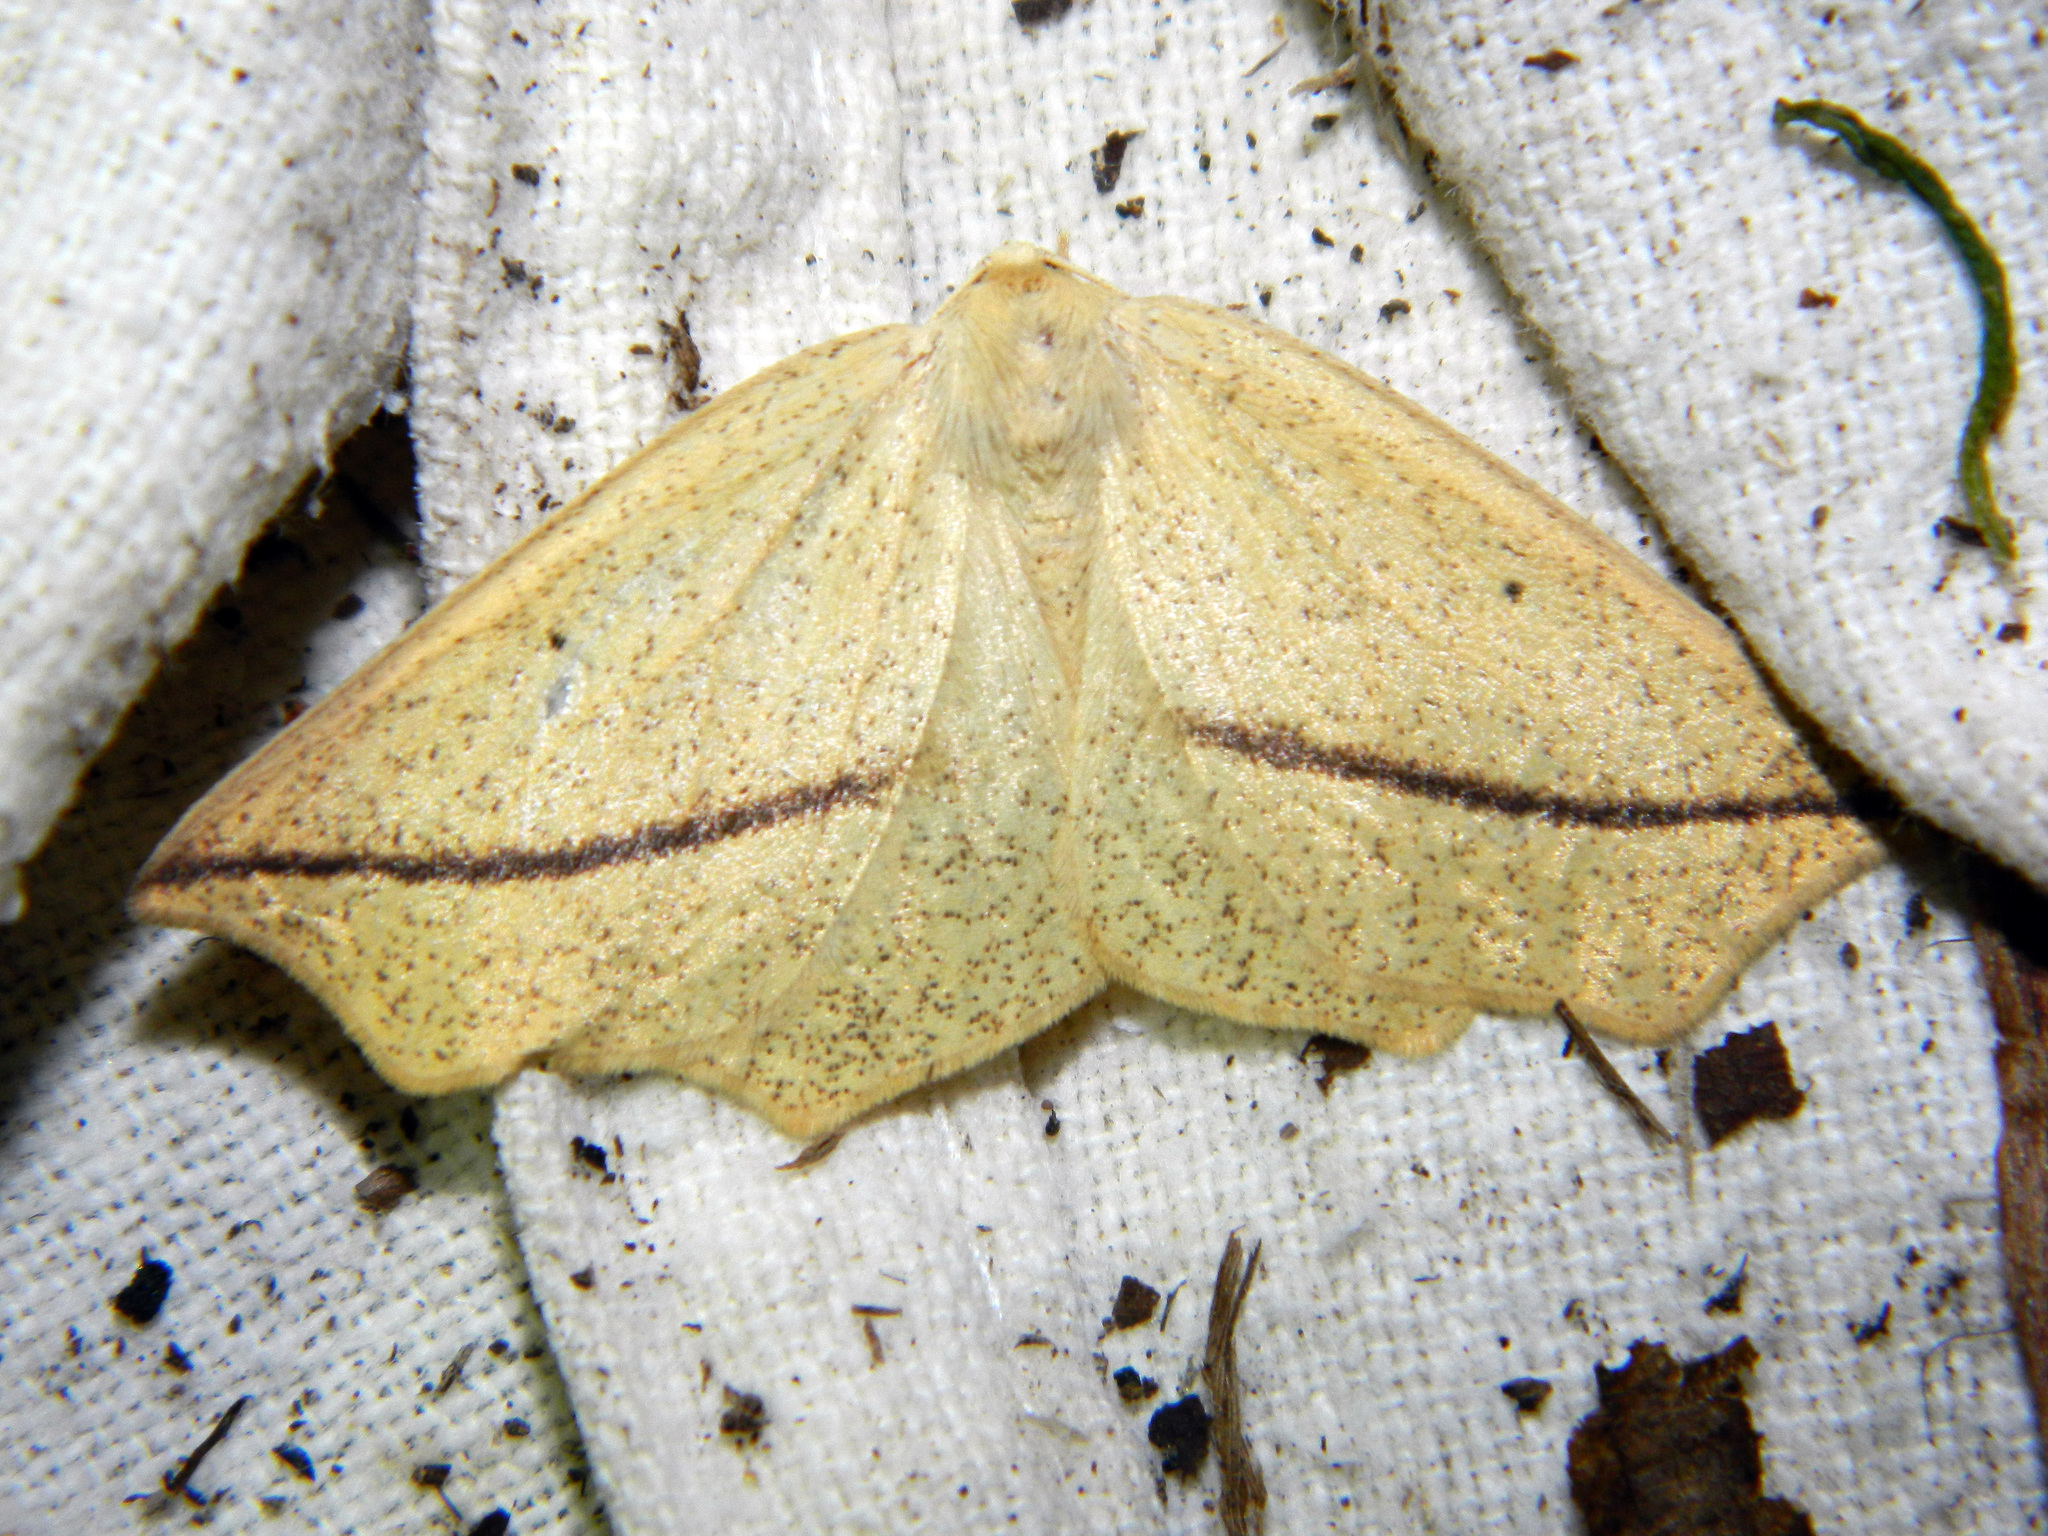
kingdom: Animalia
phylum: Arthropoda
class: Insecta
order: Lepidoptera
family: Geometridae
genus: Tetracis
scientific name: Tetracis crocallata
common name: Yellow slant-line
